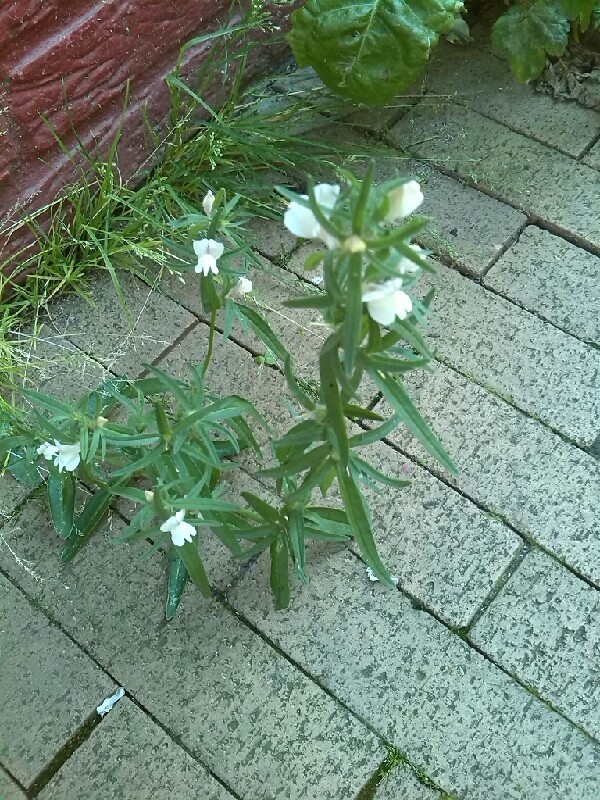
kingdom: Plantae
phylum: Tracheophyta
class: Magnoliopsida
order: Lamiales
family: Plantaginaceae
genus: Antirrhinum
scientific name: Antirrhinum majus
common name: Snapdragon
